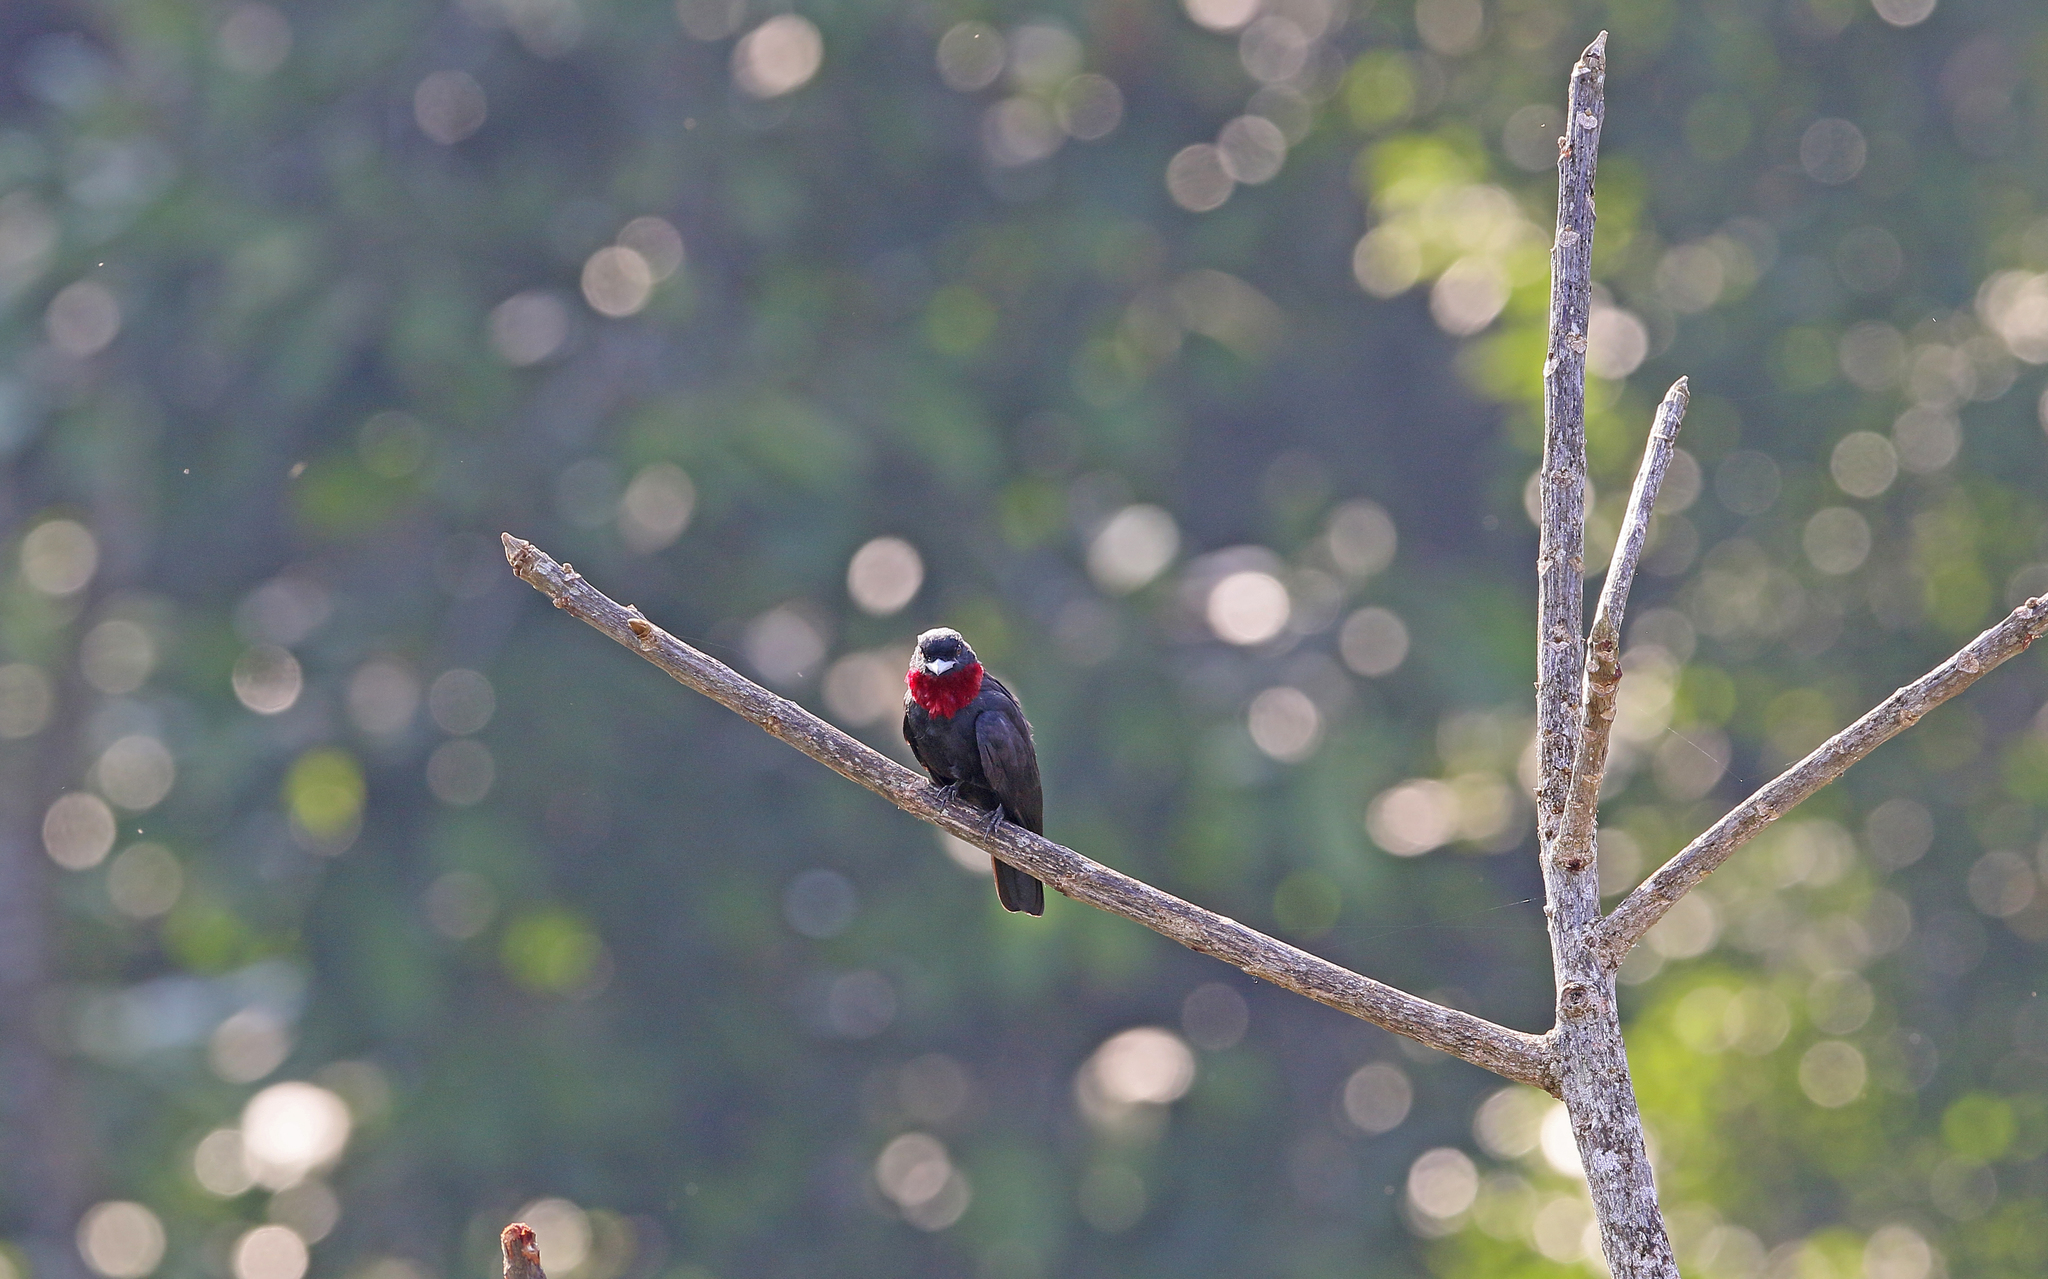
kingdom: Animalia
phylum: Chordata
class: Aves
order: Passeriformes
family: Cotingidae
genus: Querula
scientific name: Querula purpurata
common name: Purple-throated fruitcrow
